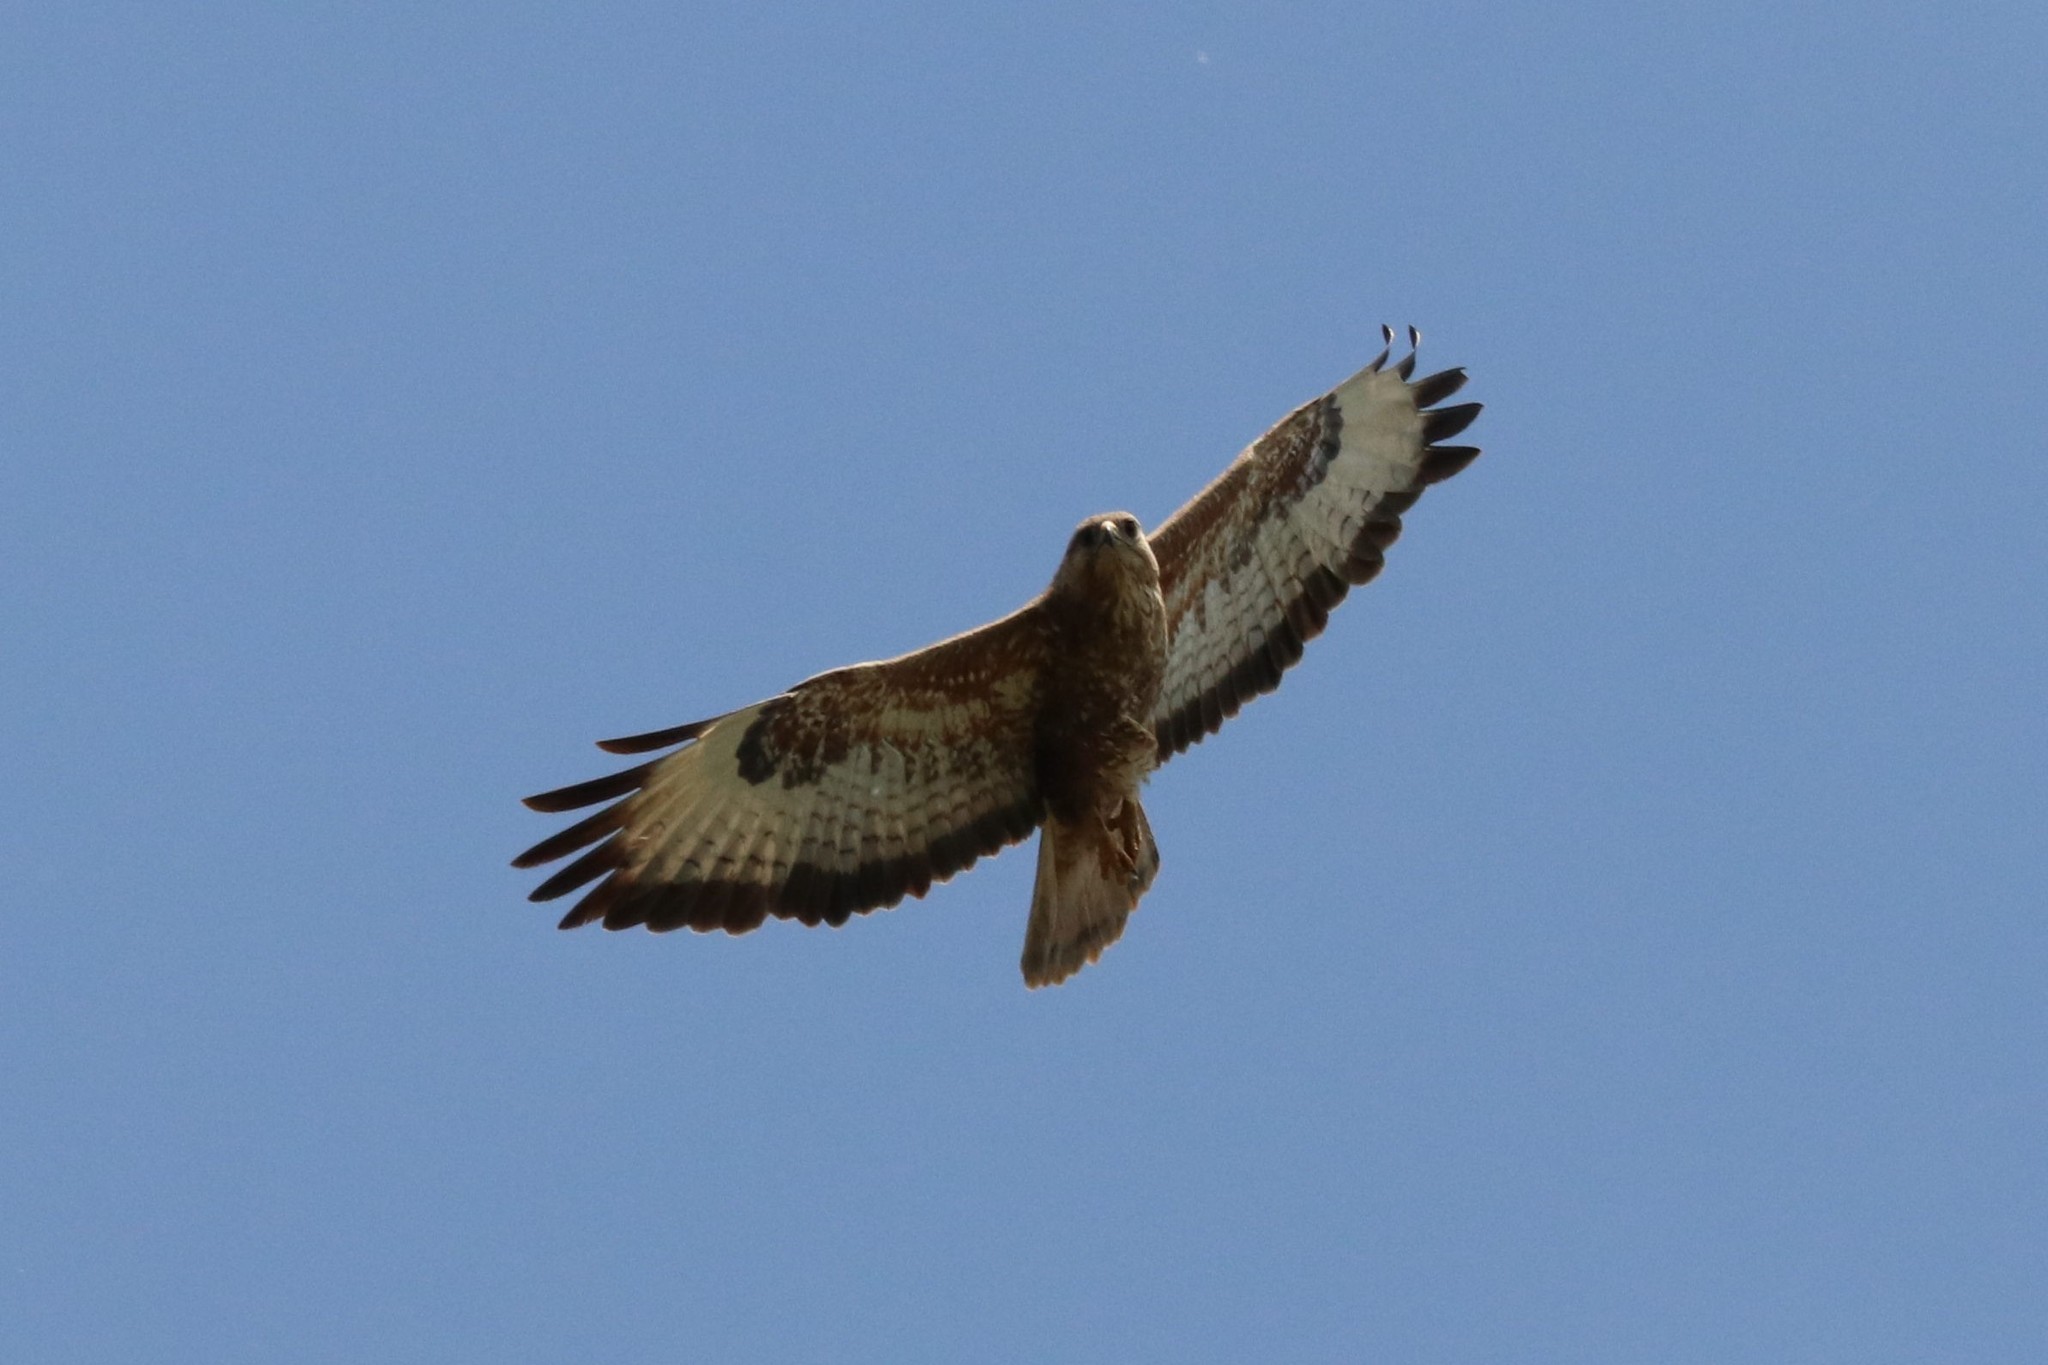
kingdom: Animalia
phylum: Chordata
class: Aves
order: Accipitriformes
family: Accipitridae
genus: Buteo
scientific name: Buteo buteo
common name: Common buzzard
